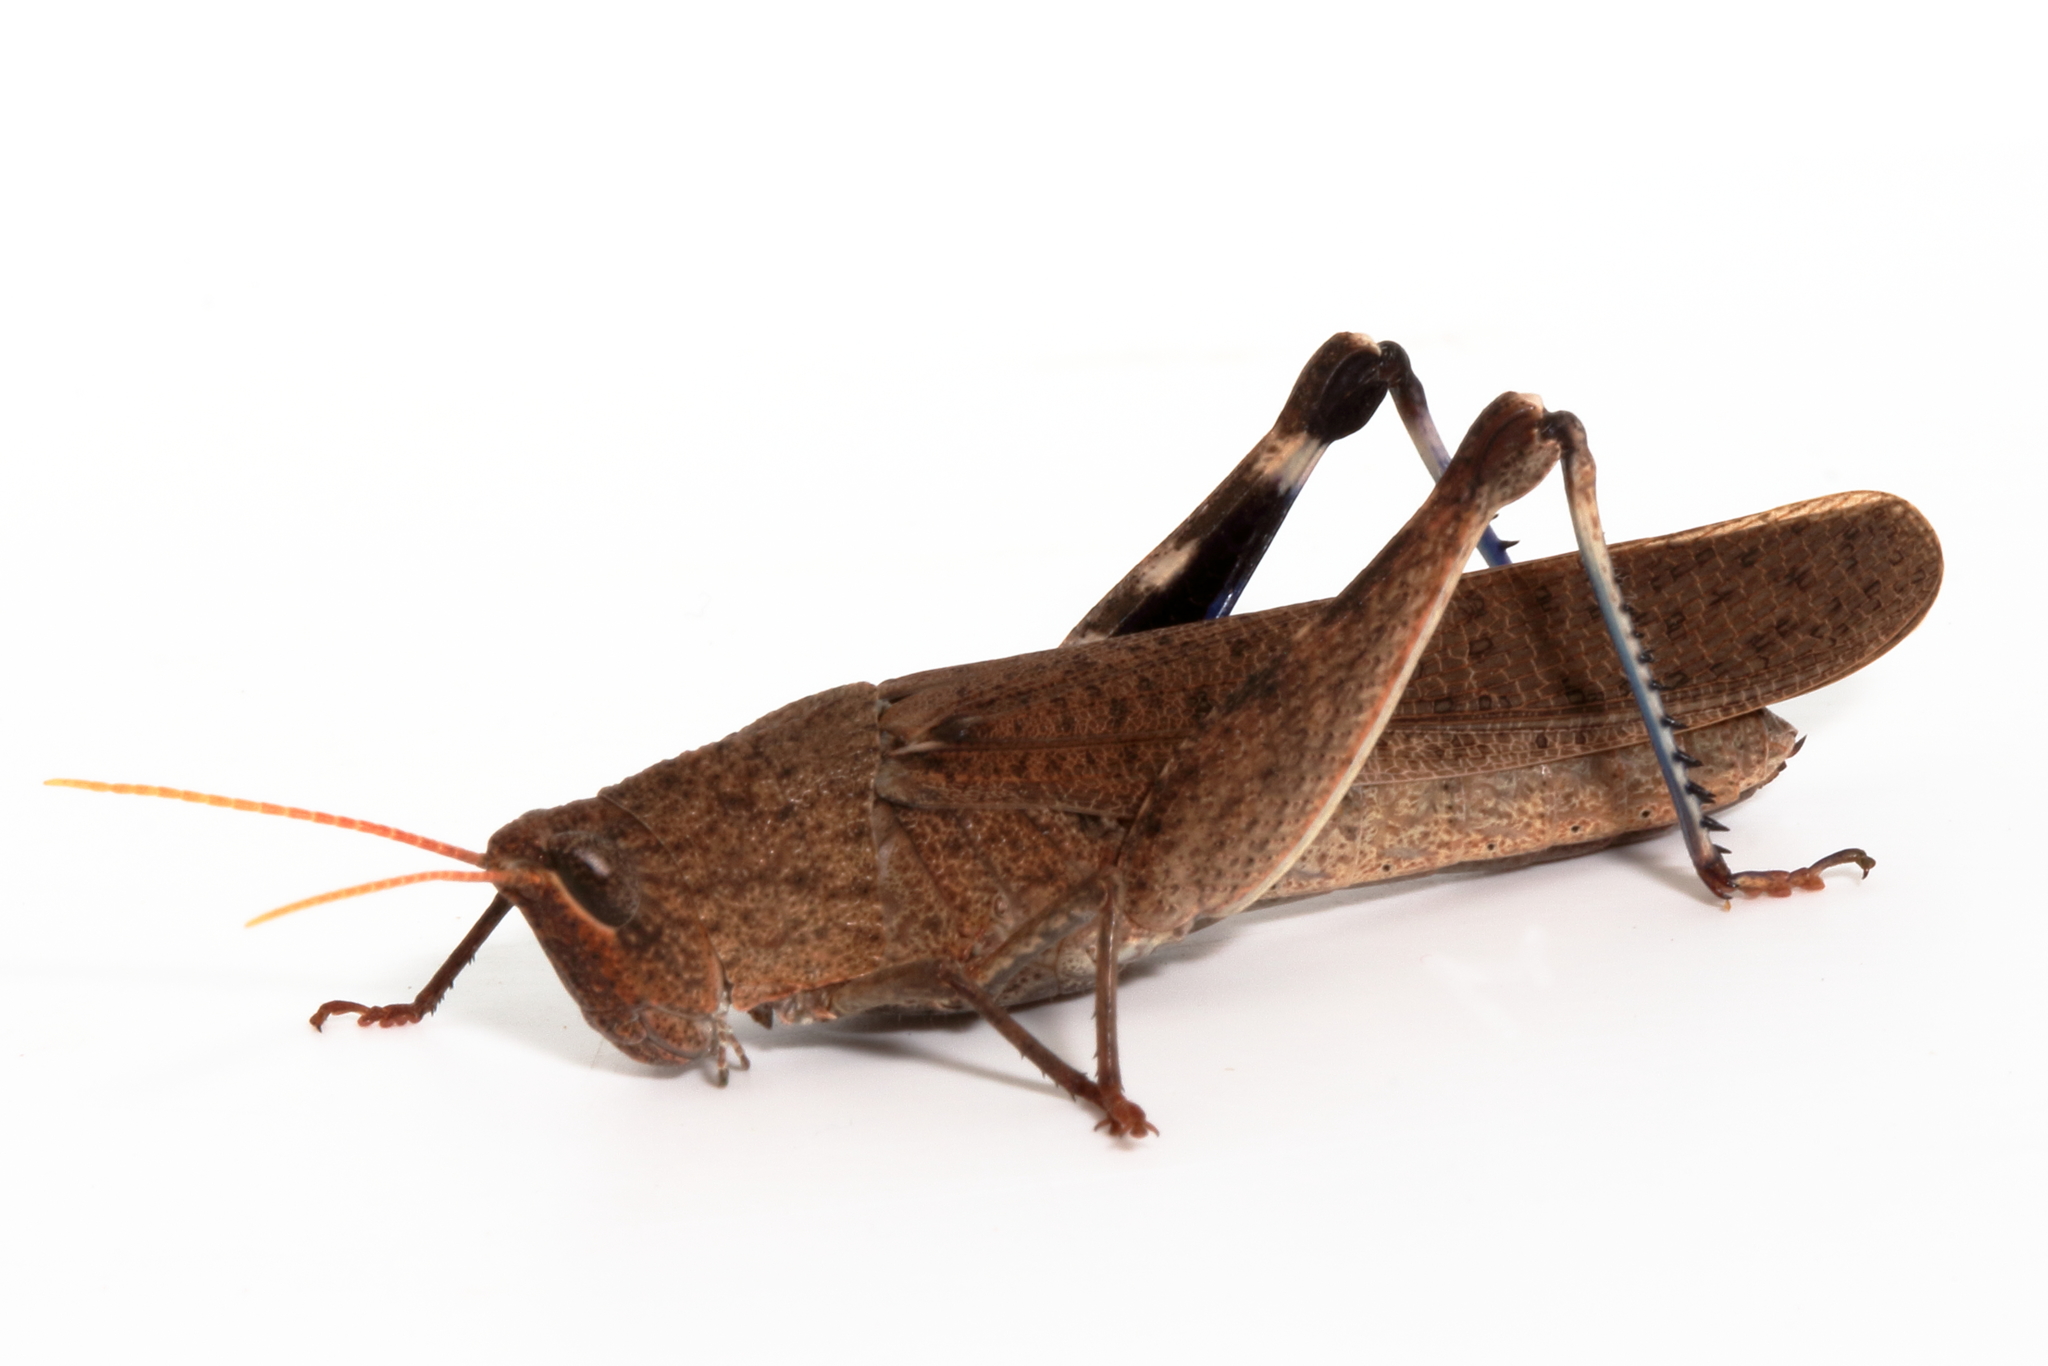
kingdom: Animalia
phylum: Arthropoda
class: Insecta
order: Orthoptera
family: Acrididae
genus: Goniaea
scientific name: Goniaea opomaloides
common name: Mimetic gumleaf grasshopper
